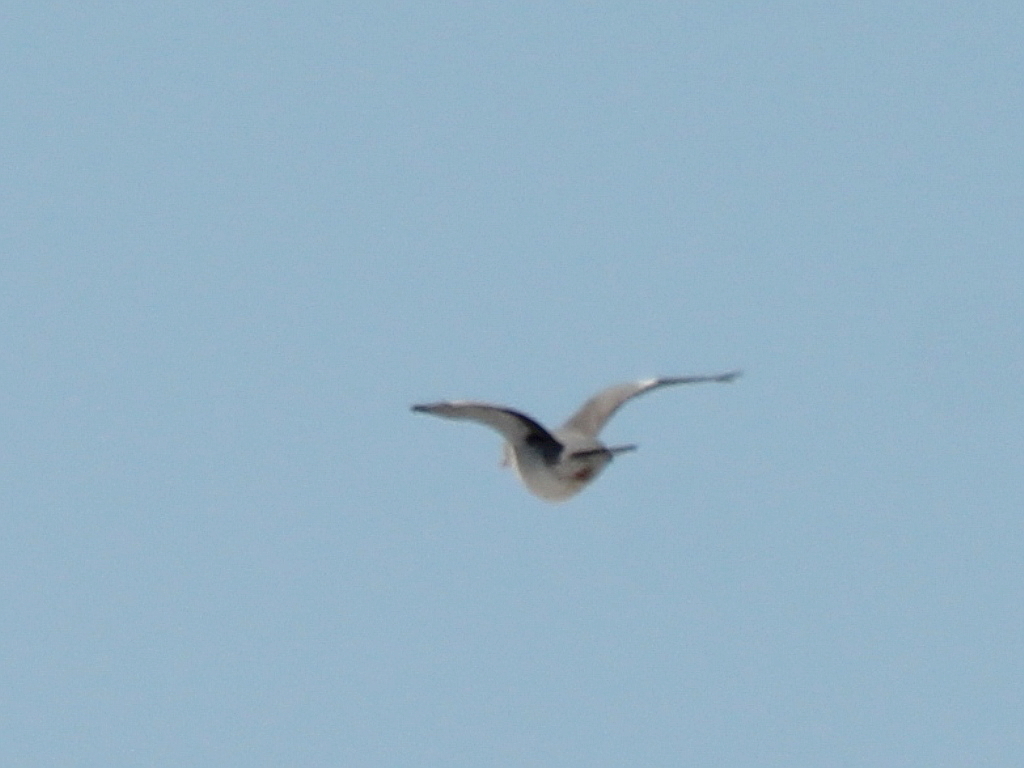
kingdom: Animalia
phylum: Chordata
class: Aves
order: Columbiformes
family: Columbidae
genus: Columba
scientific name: Columba palumbus
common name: Common wood pigeon
